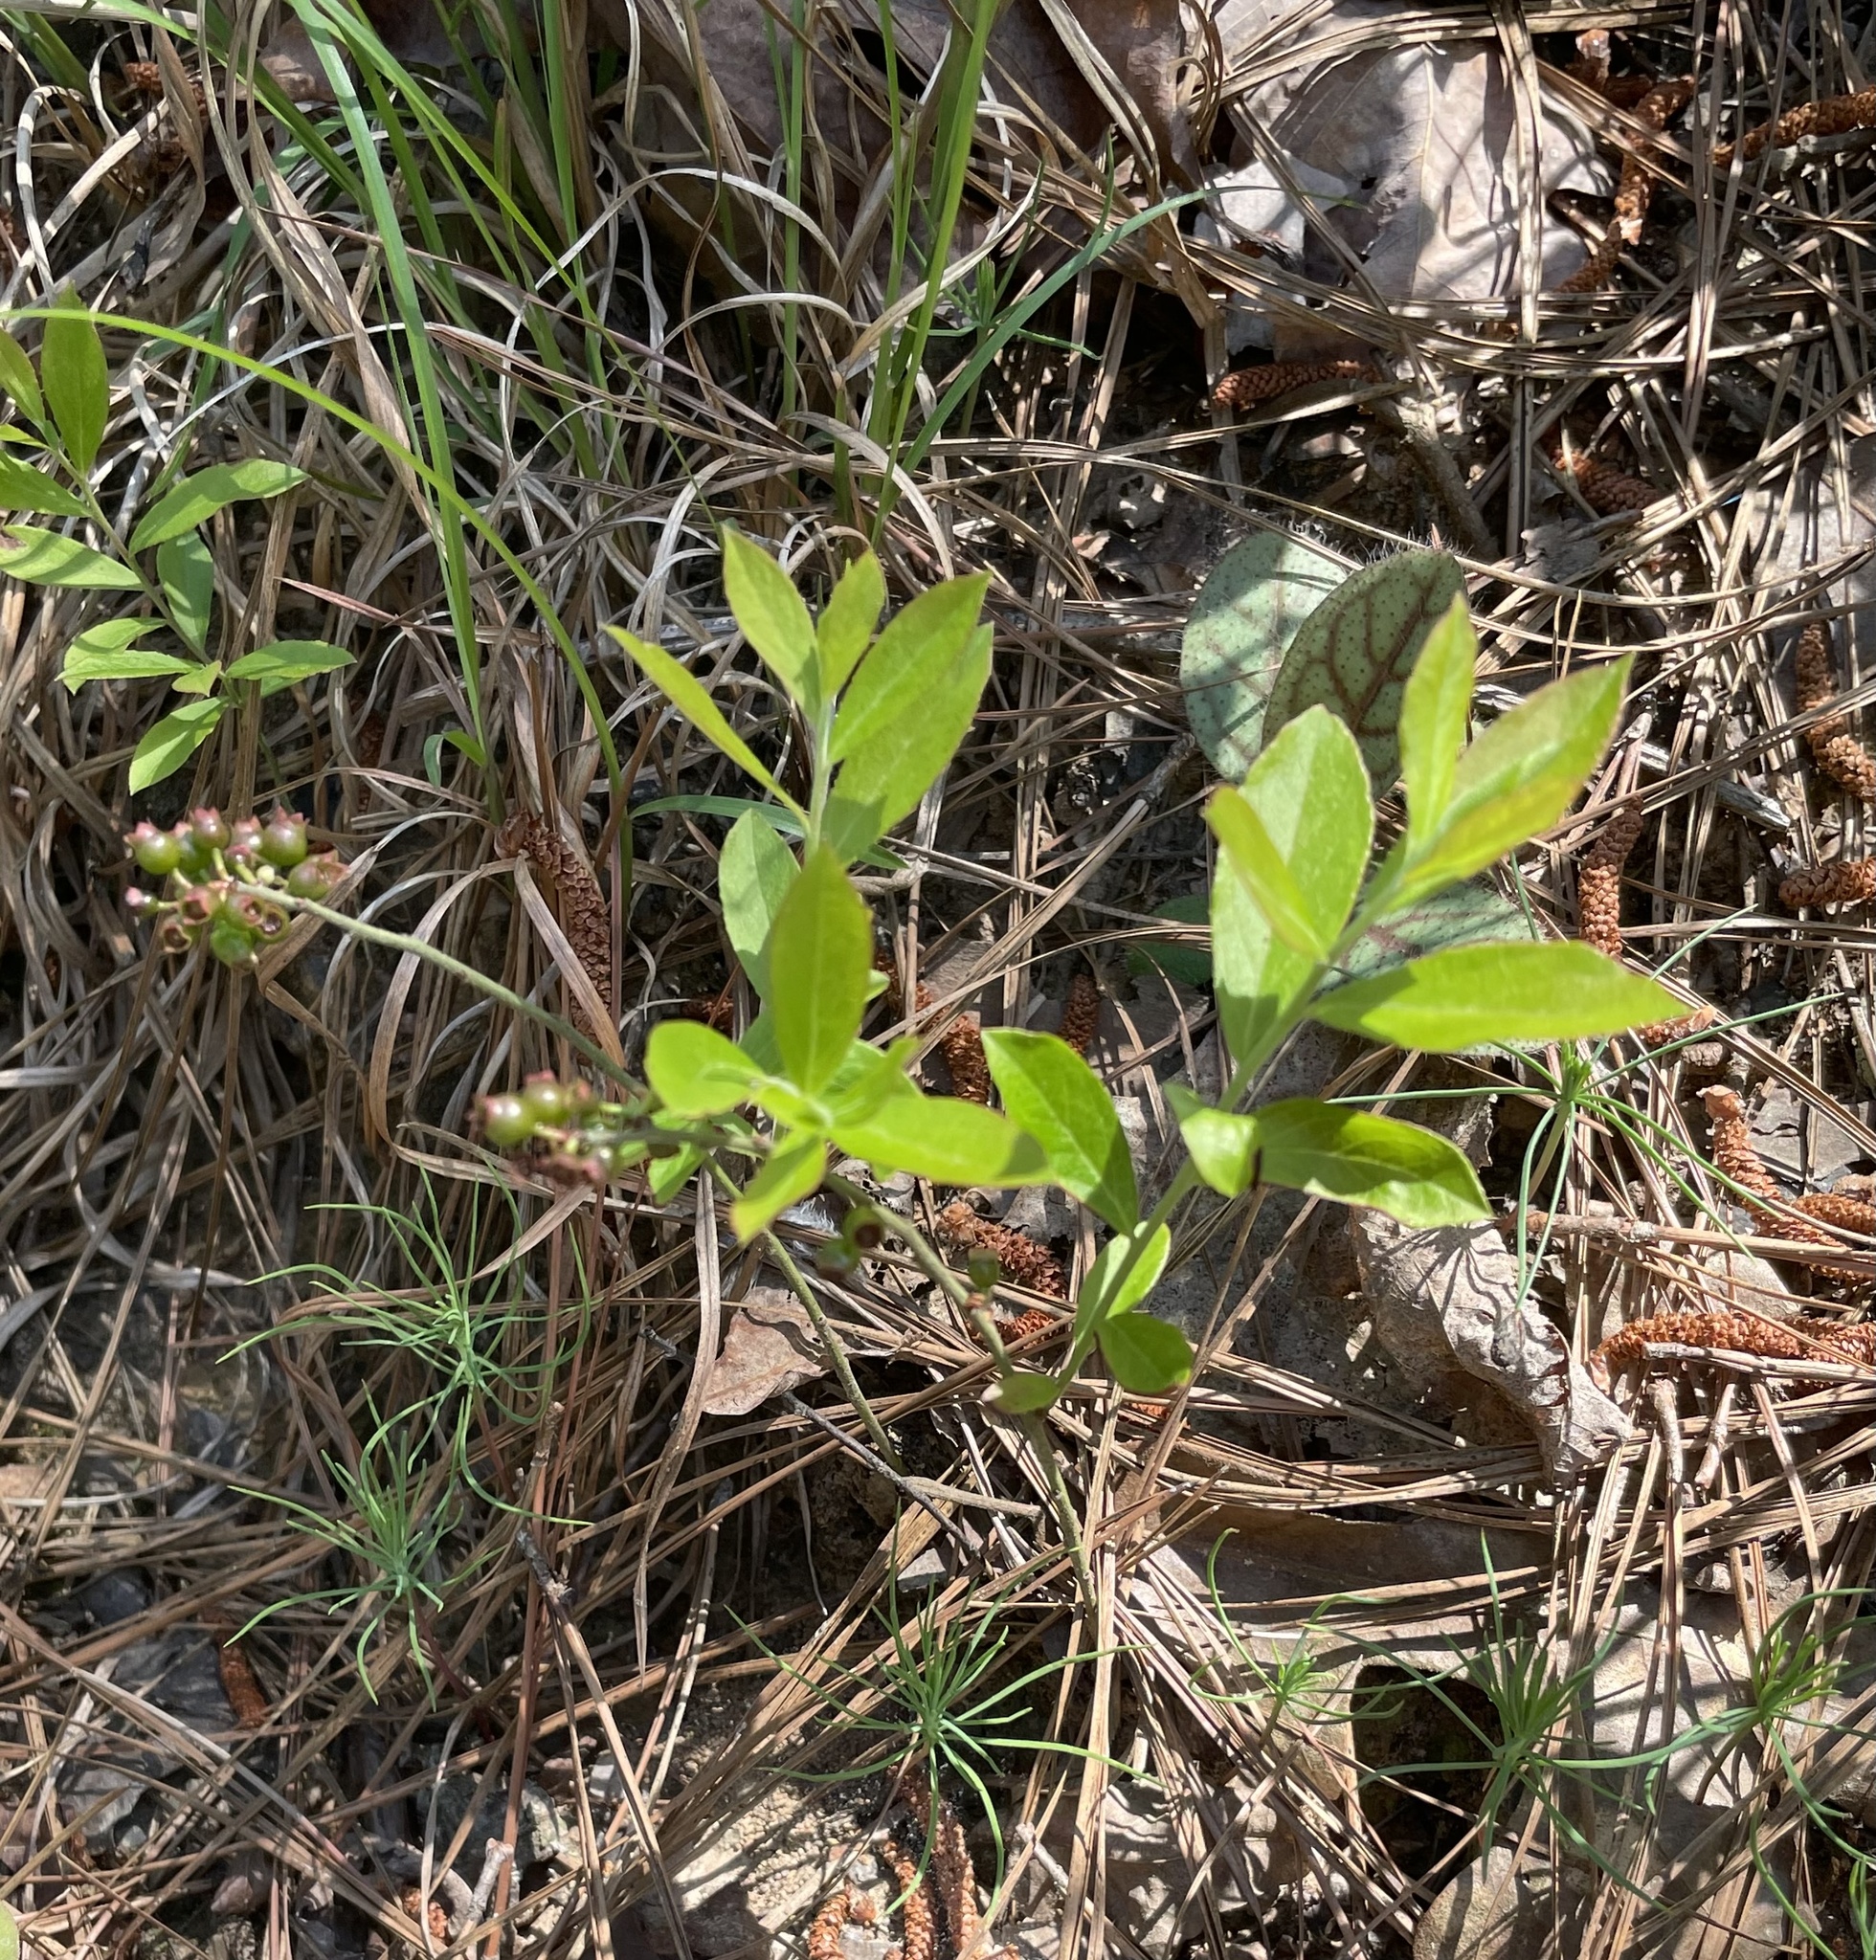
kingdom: Plantae
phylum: Tracheophyta
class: Magnoliopsida
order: Ericales
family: Ericaceae
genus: Vaccinium
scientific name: Vaccinium tenellum
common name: Southern blueberry
